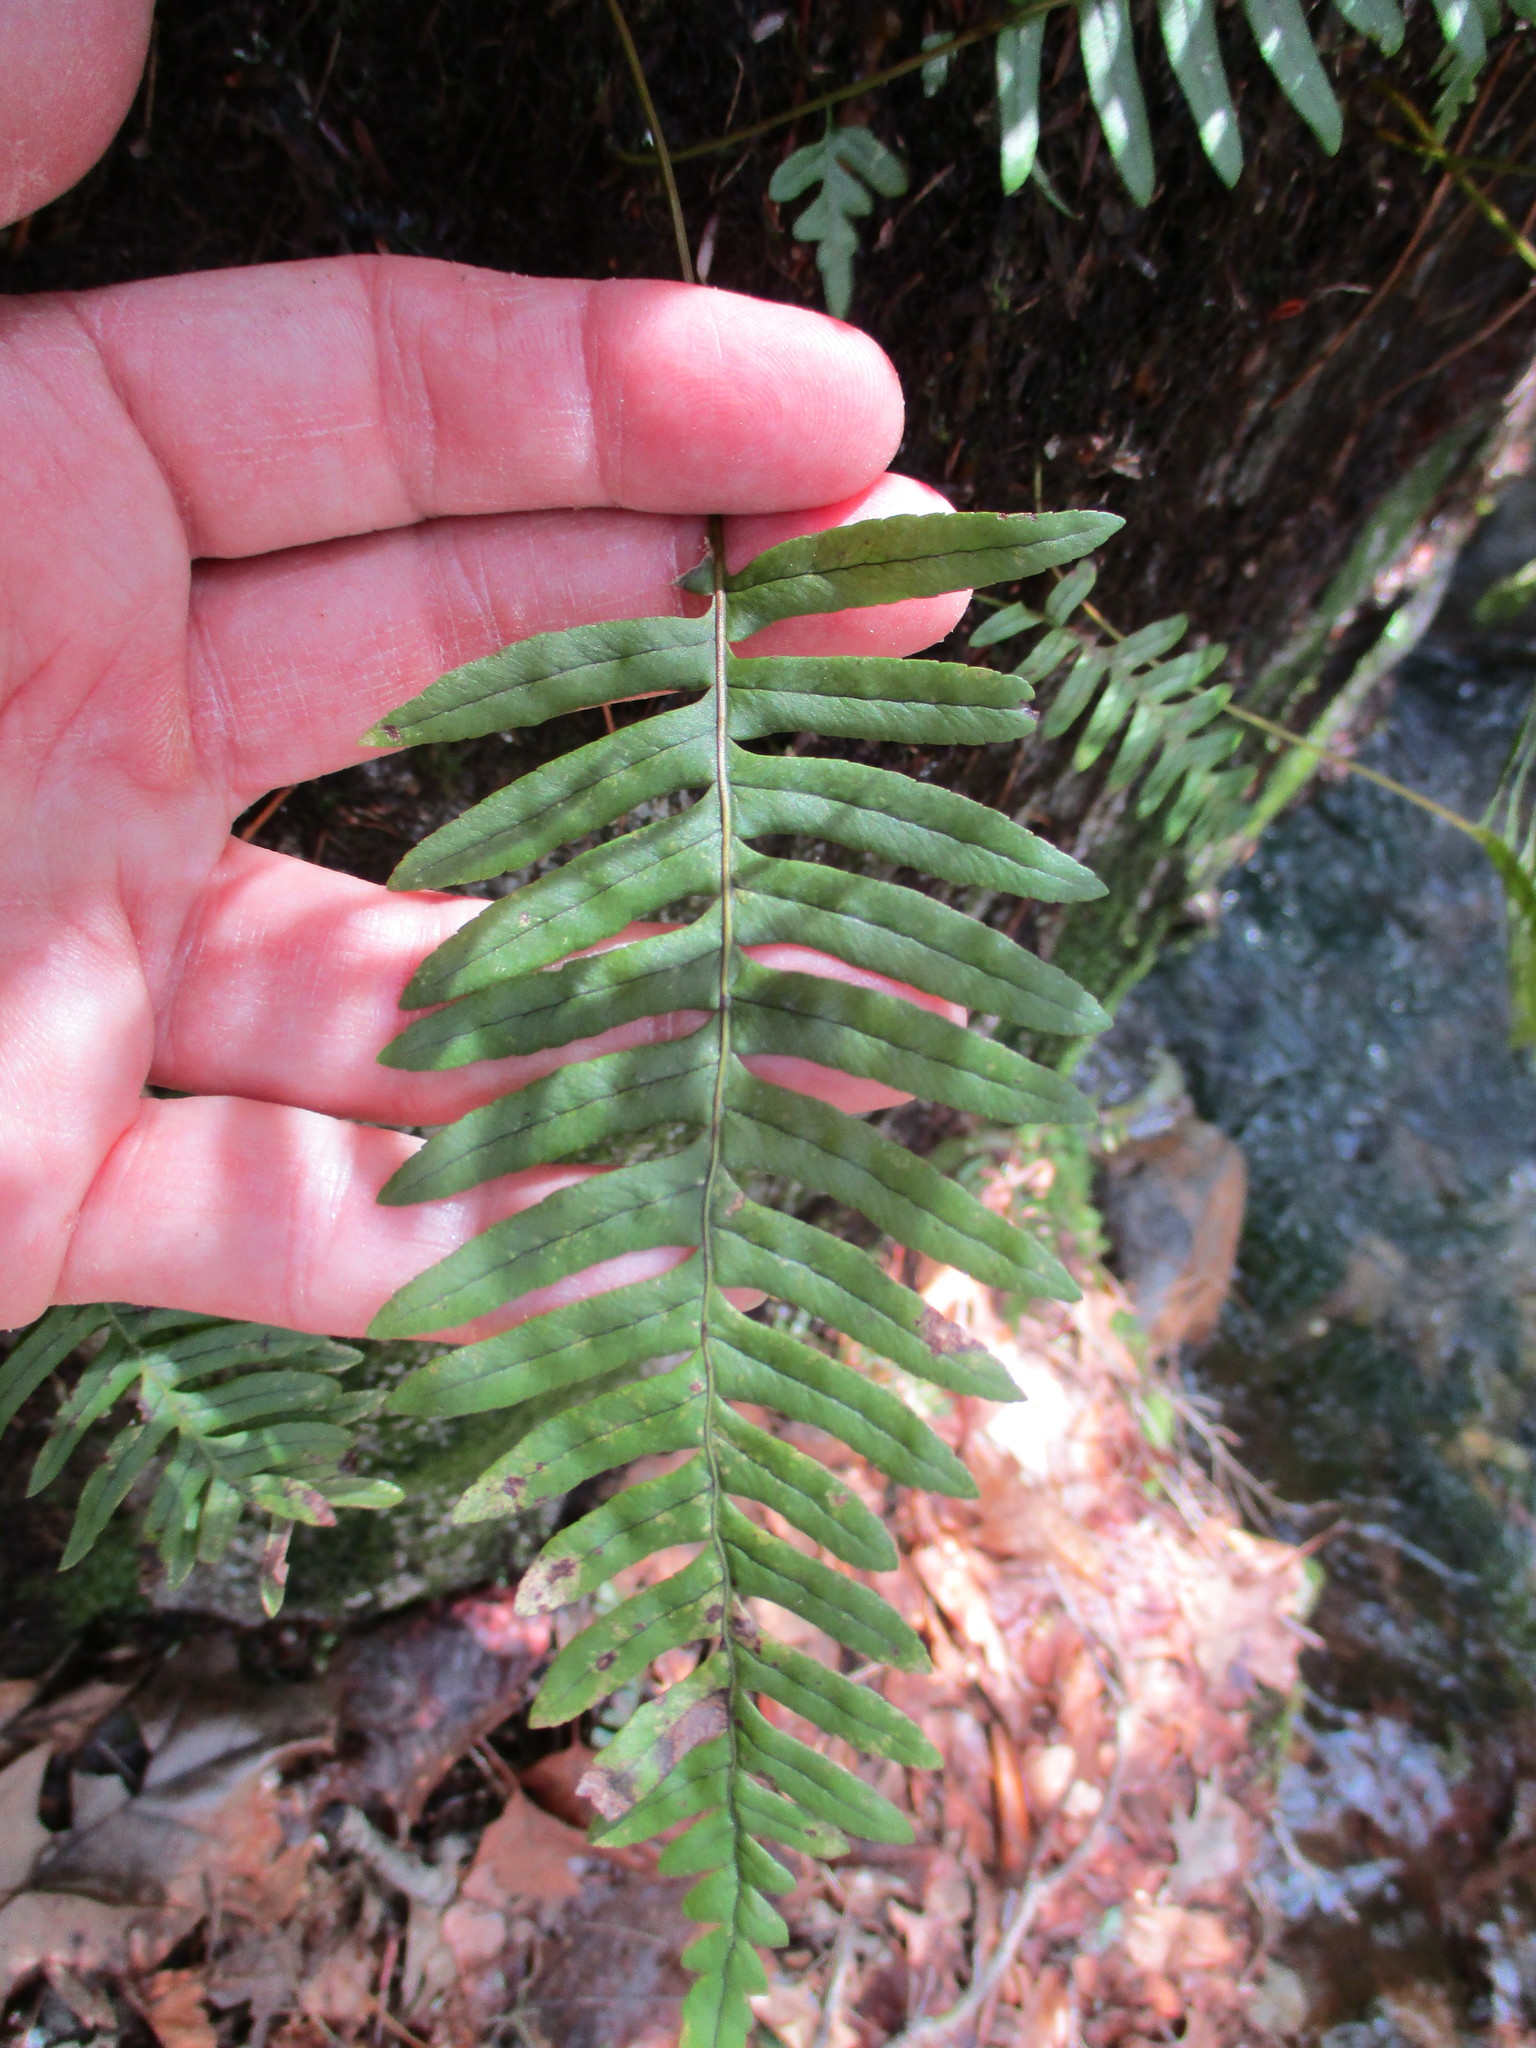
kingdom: Plantae
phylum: Tracheophyta
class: Polypodiopsida
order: Polypodiales
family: Polypodiaceae
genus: Polypodium
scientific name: Polypodium appalachianum
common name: Appalachian polypody
